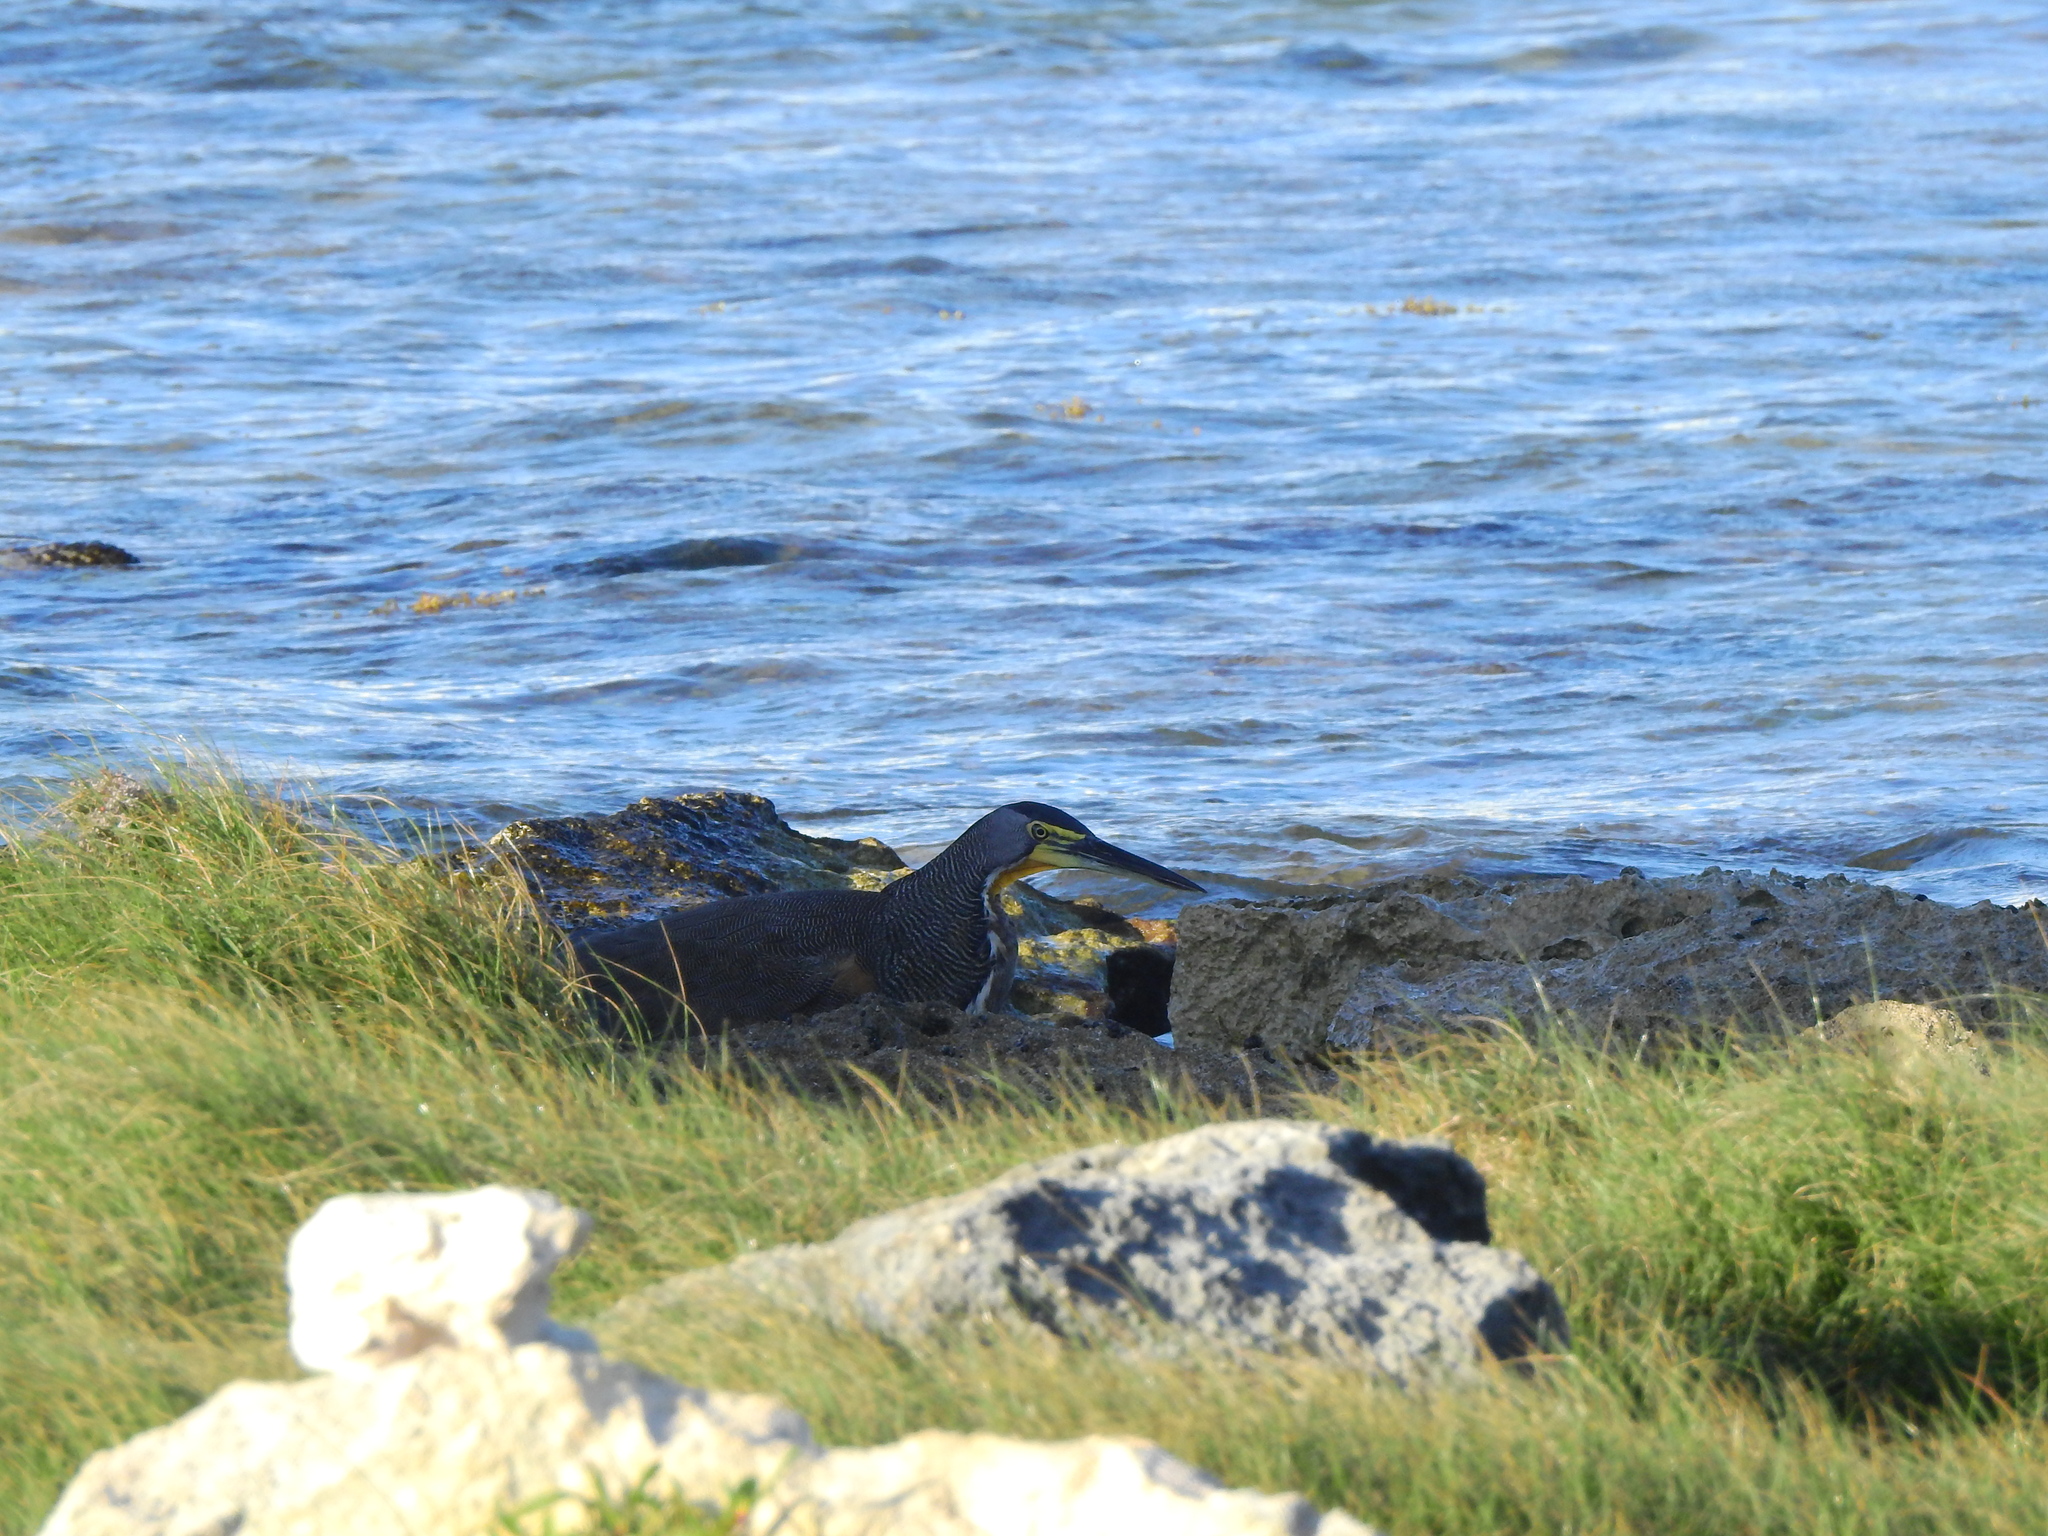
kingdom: Animalia
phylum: Chordata
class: Aves
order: Pelecaniformes
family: Ardeidae
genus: Tigrisoma
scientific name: Tigrisoma mexicanum
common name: Bare-throated tiger-heron
